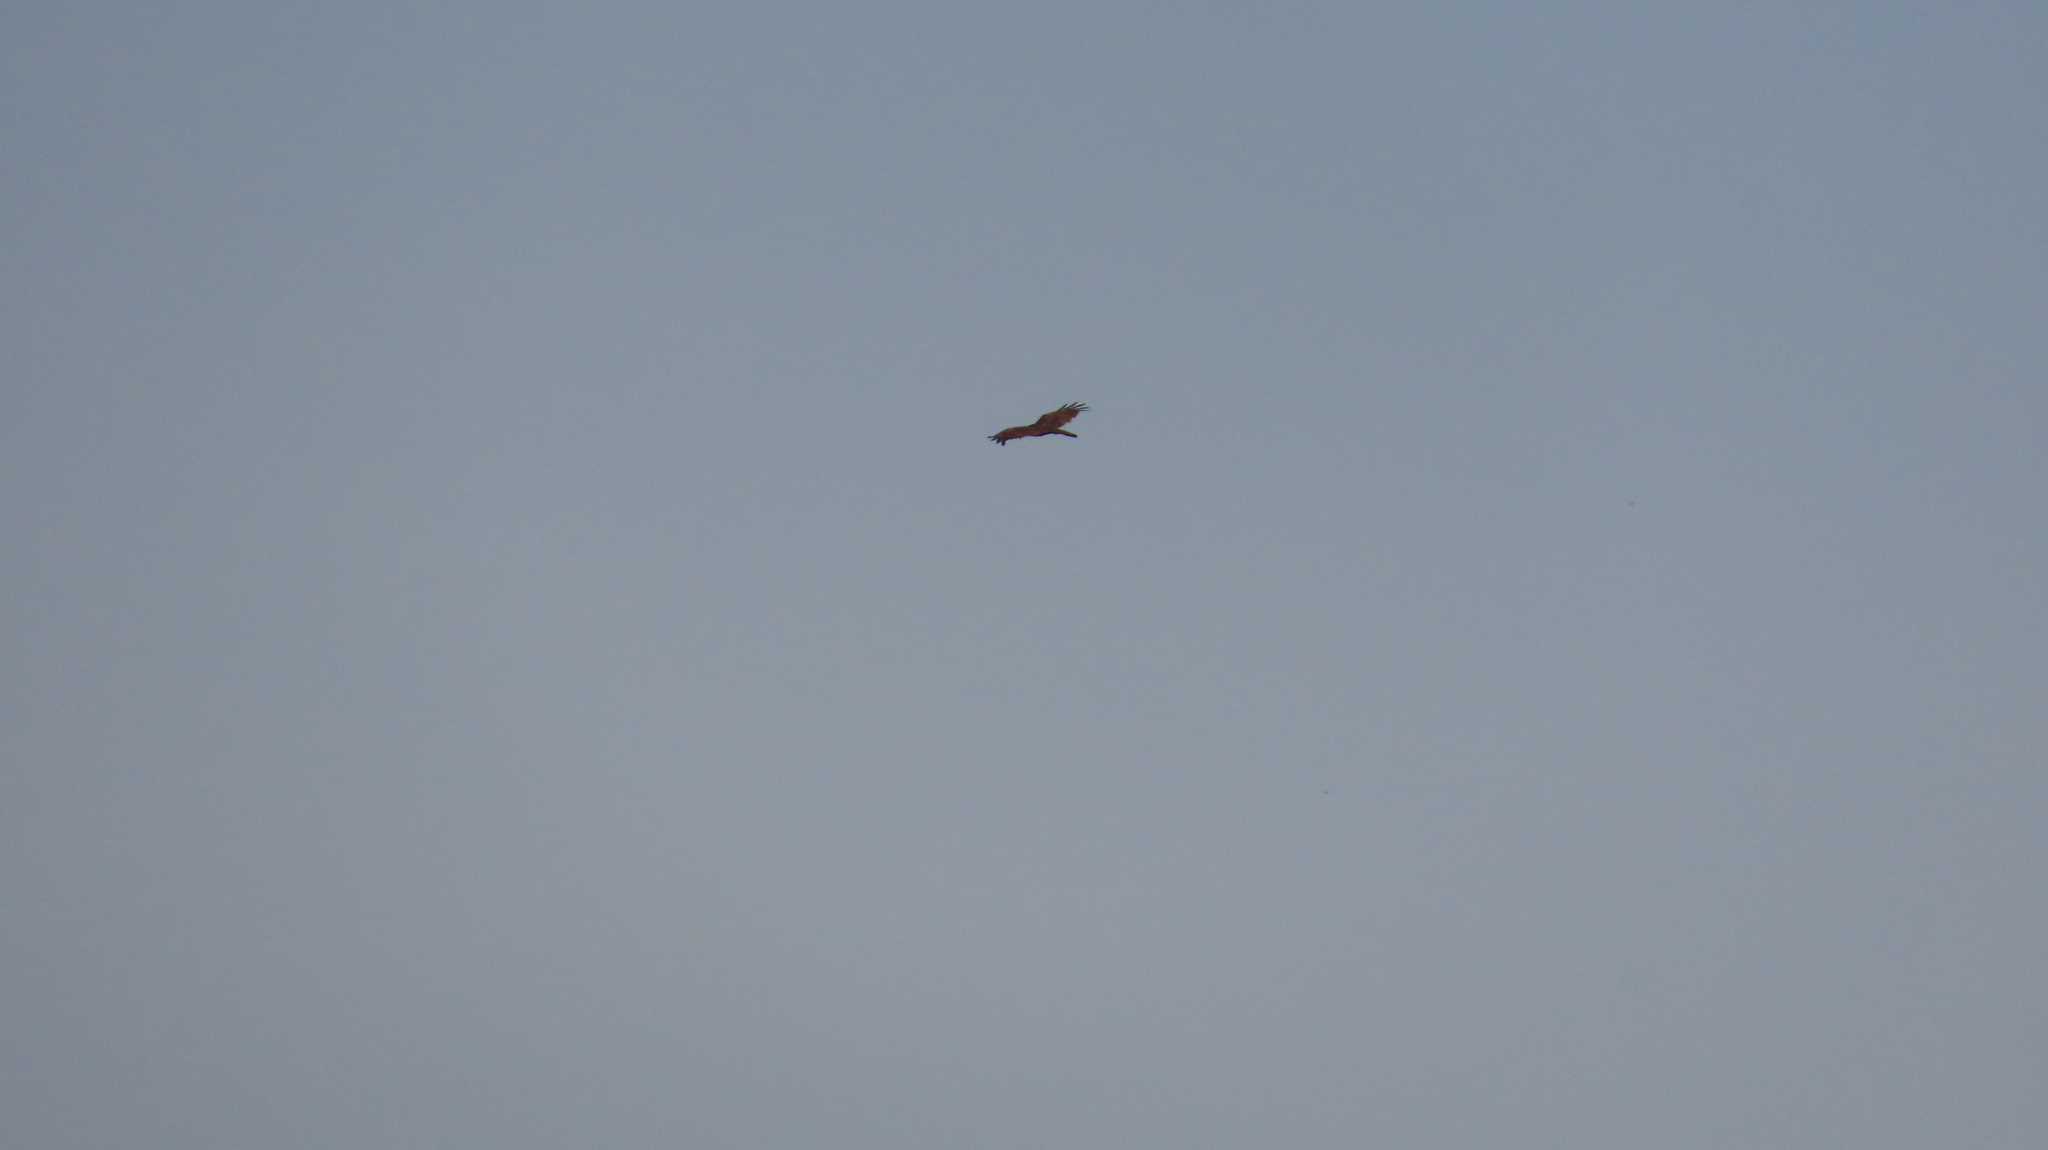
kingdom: Animalia
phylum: Chordata
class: Aves
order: Accipitriformes
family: Accipitridae
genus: Haliastur
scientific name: Haliastur indus
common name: Brahminy kite
